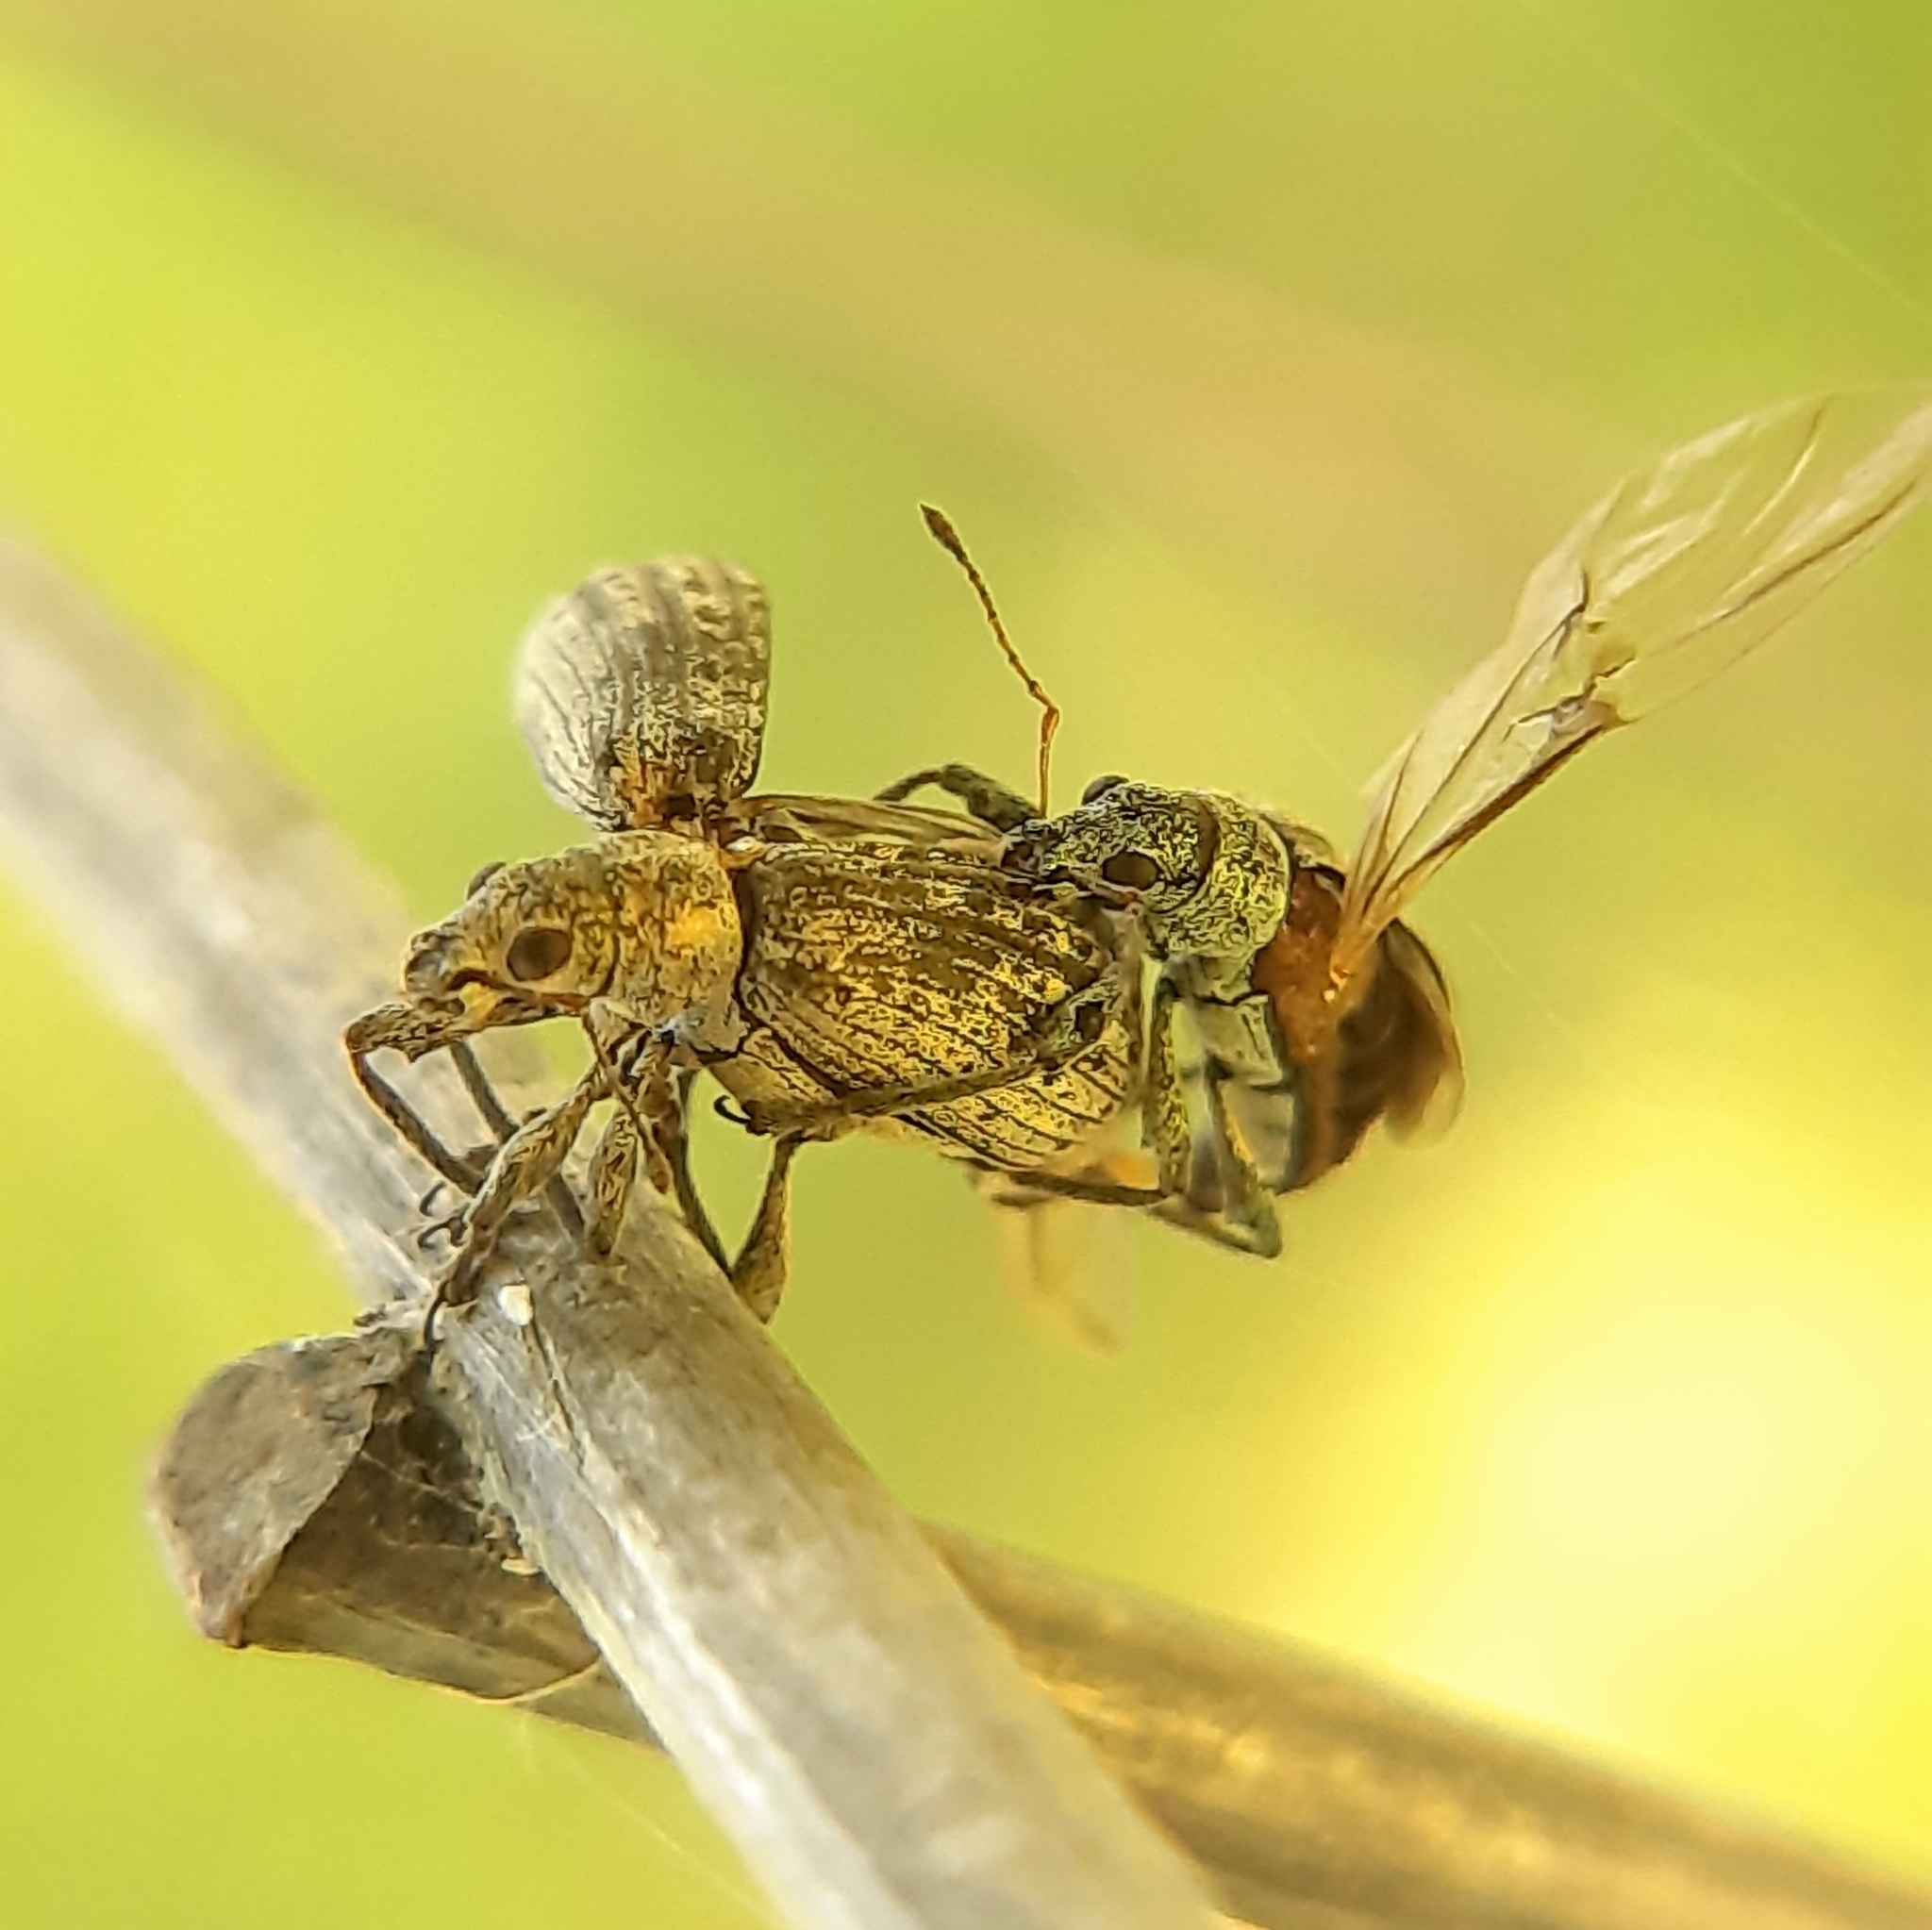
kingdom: Animalia
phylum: Arthropoda
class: Insecta
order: Coleoptera
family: Curculionidae
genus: Polydrusus
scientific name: Polydrusus cervinus
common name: Weevil
